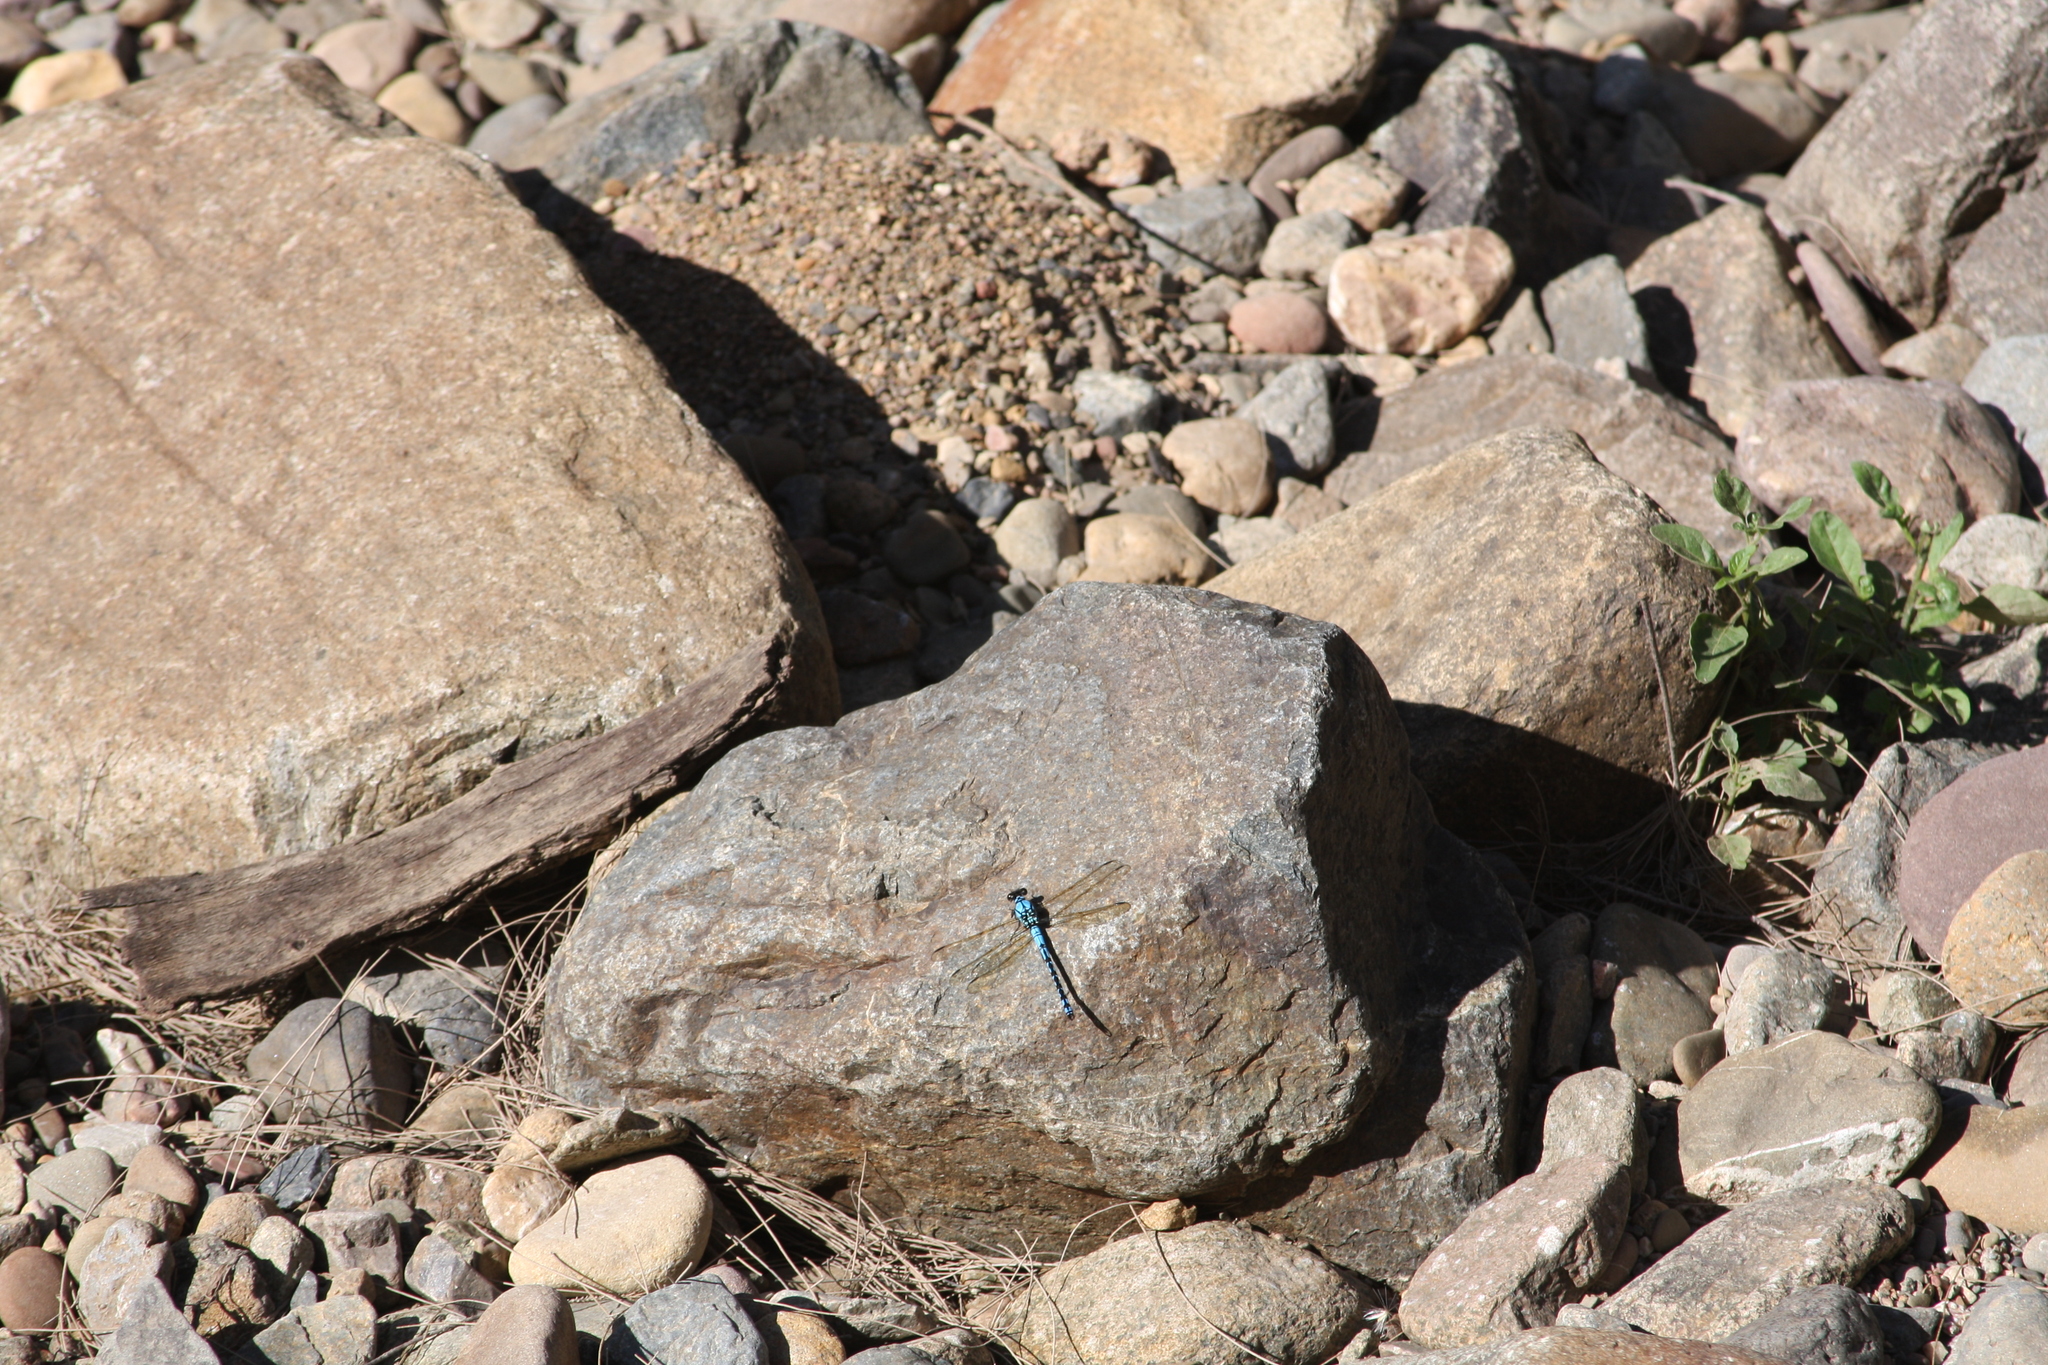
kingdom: Animalia
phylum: Arthropoda
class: Insecta
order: Odonata
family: Lestoideidae
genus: Diphlebia
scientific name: Diphlebia nymphoides
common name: Arrowhead rockmaster
